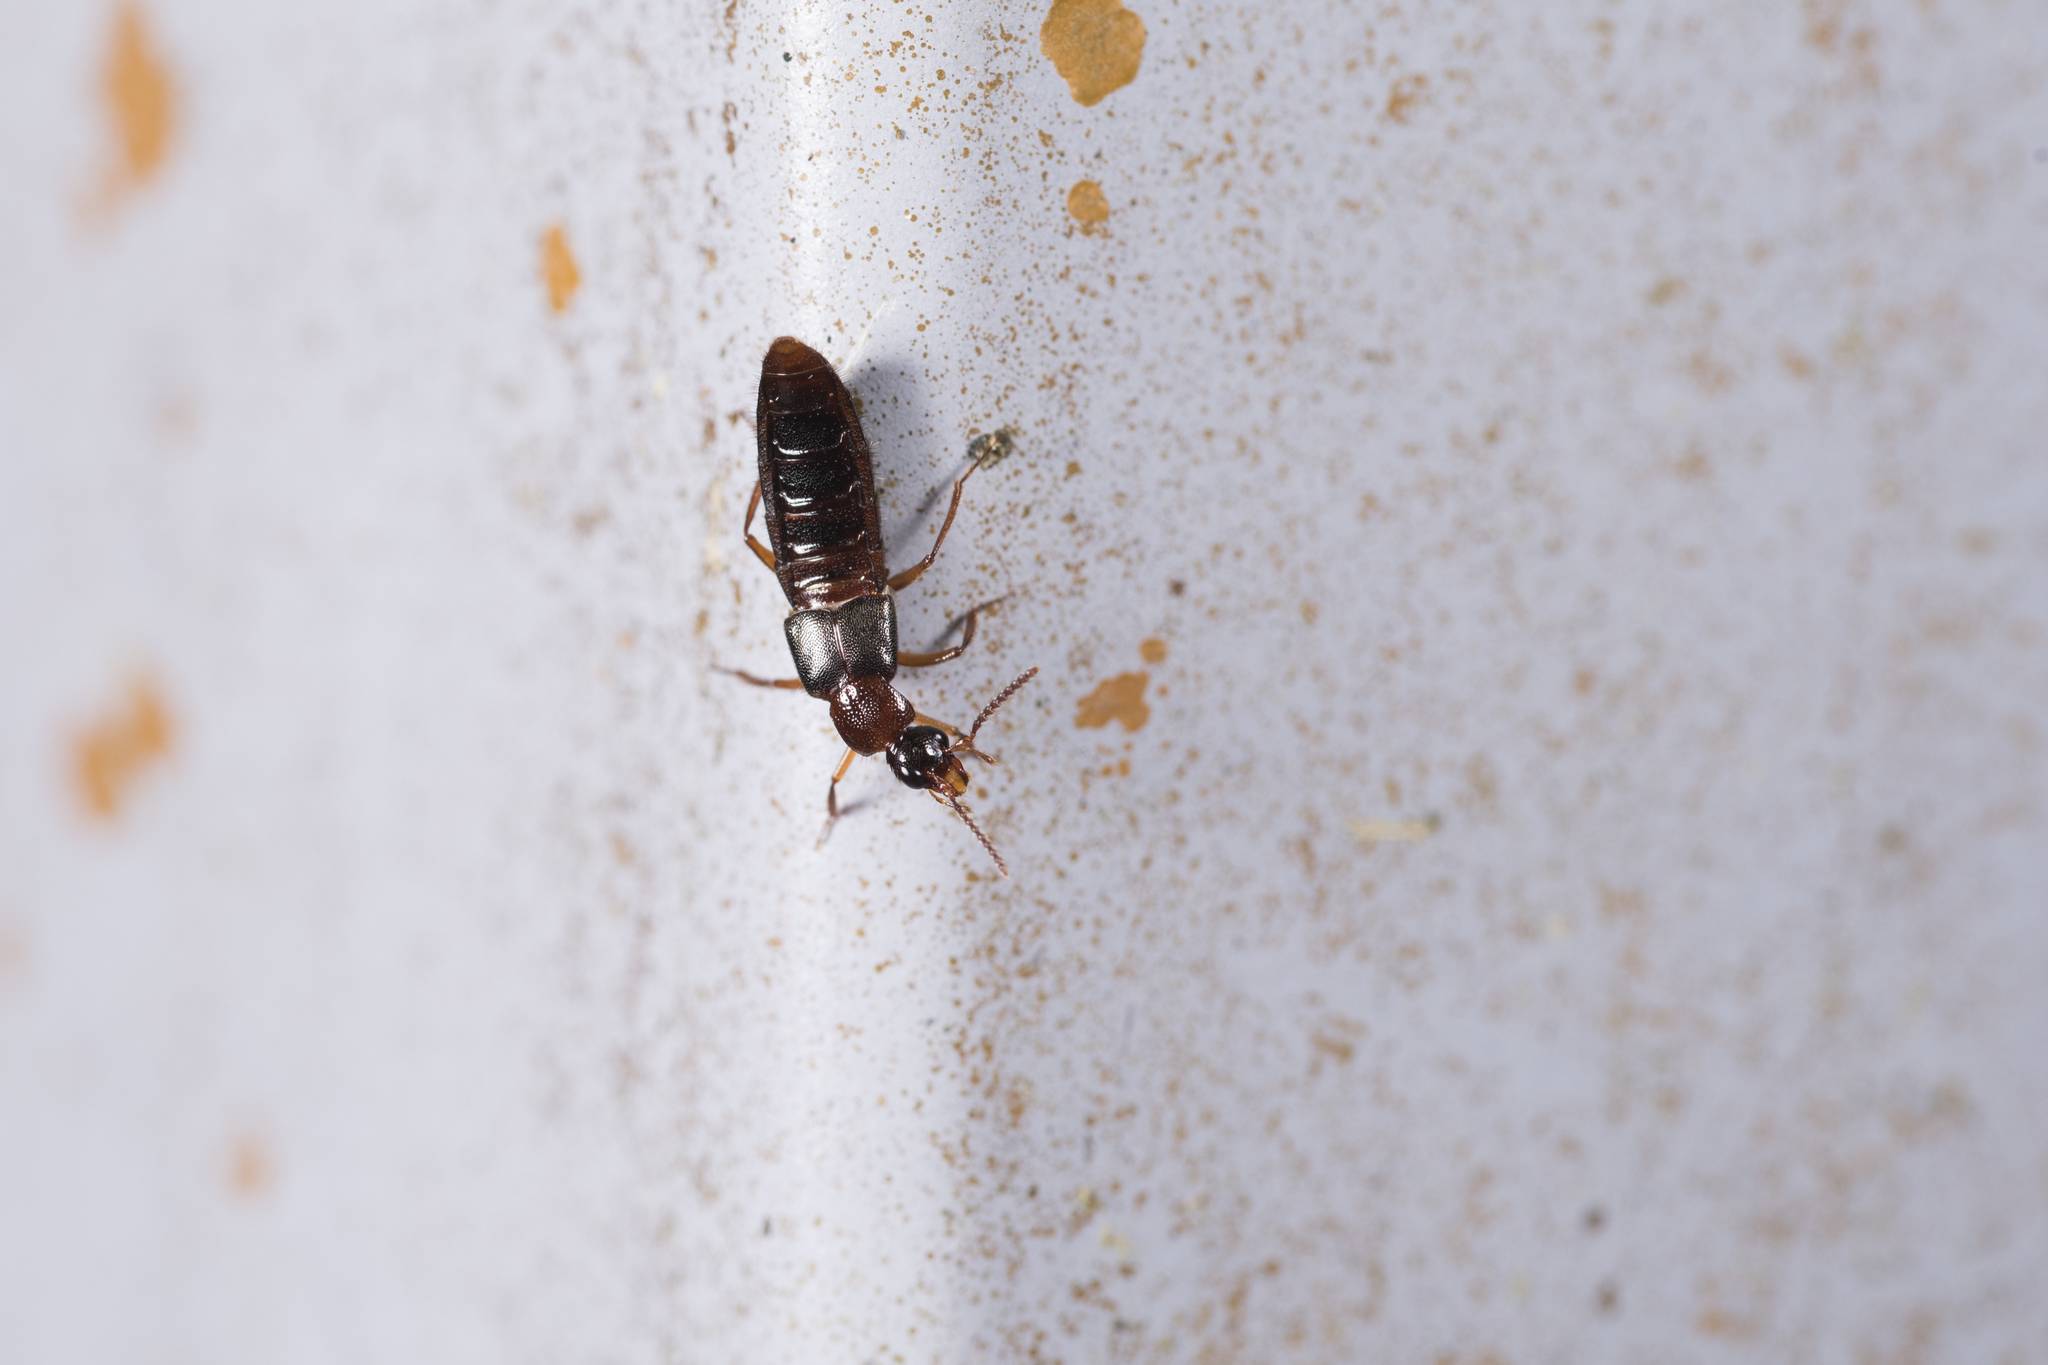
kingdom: Animalia
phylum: Arthropoda
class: Insecta
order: Coleoptera
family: Staphylinidae
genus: Zyras
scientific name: Zyras formosae
